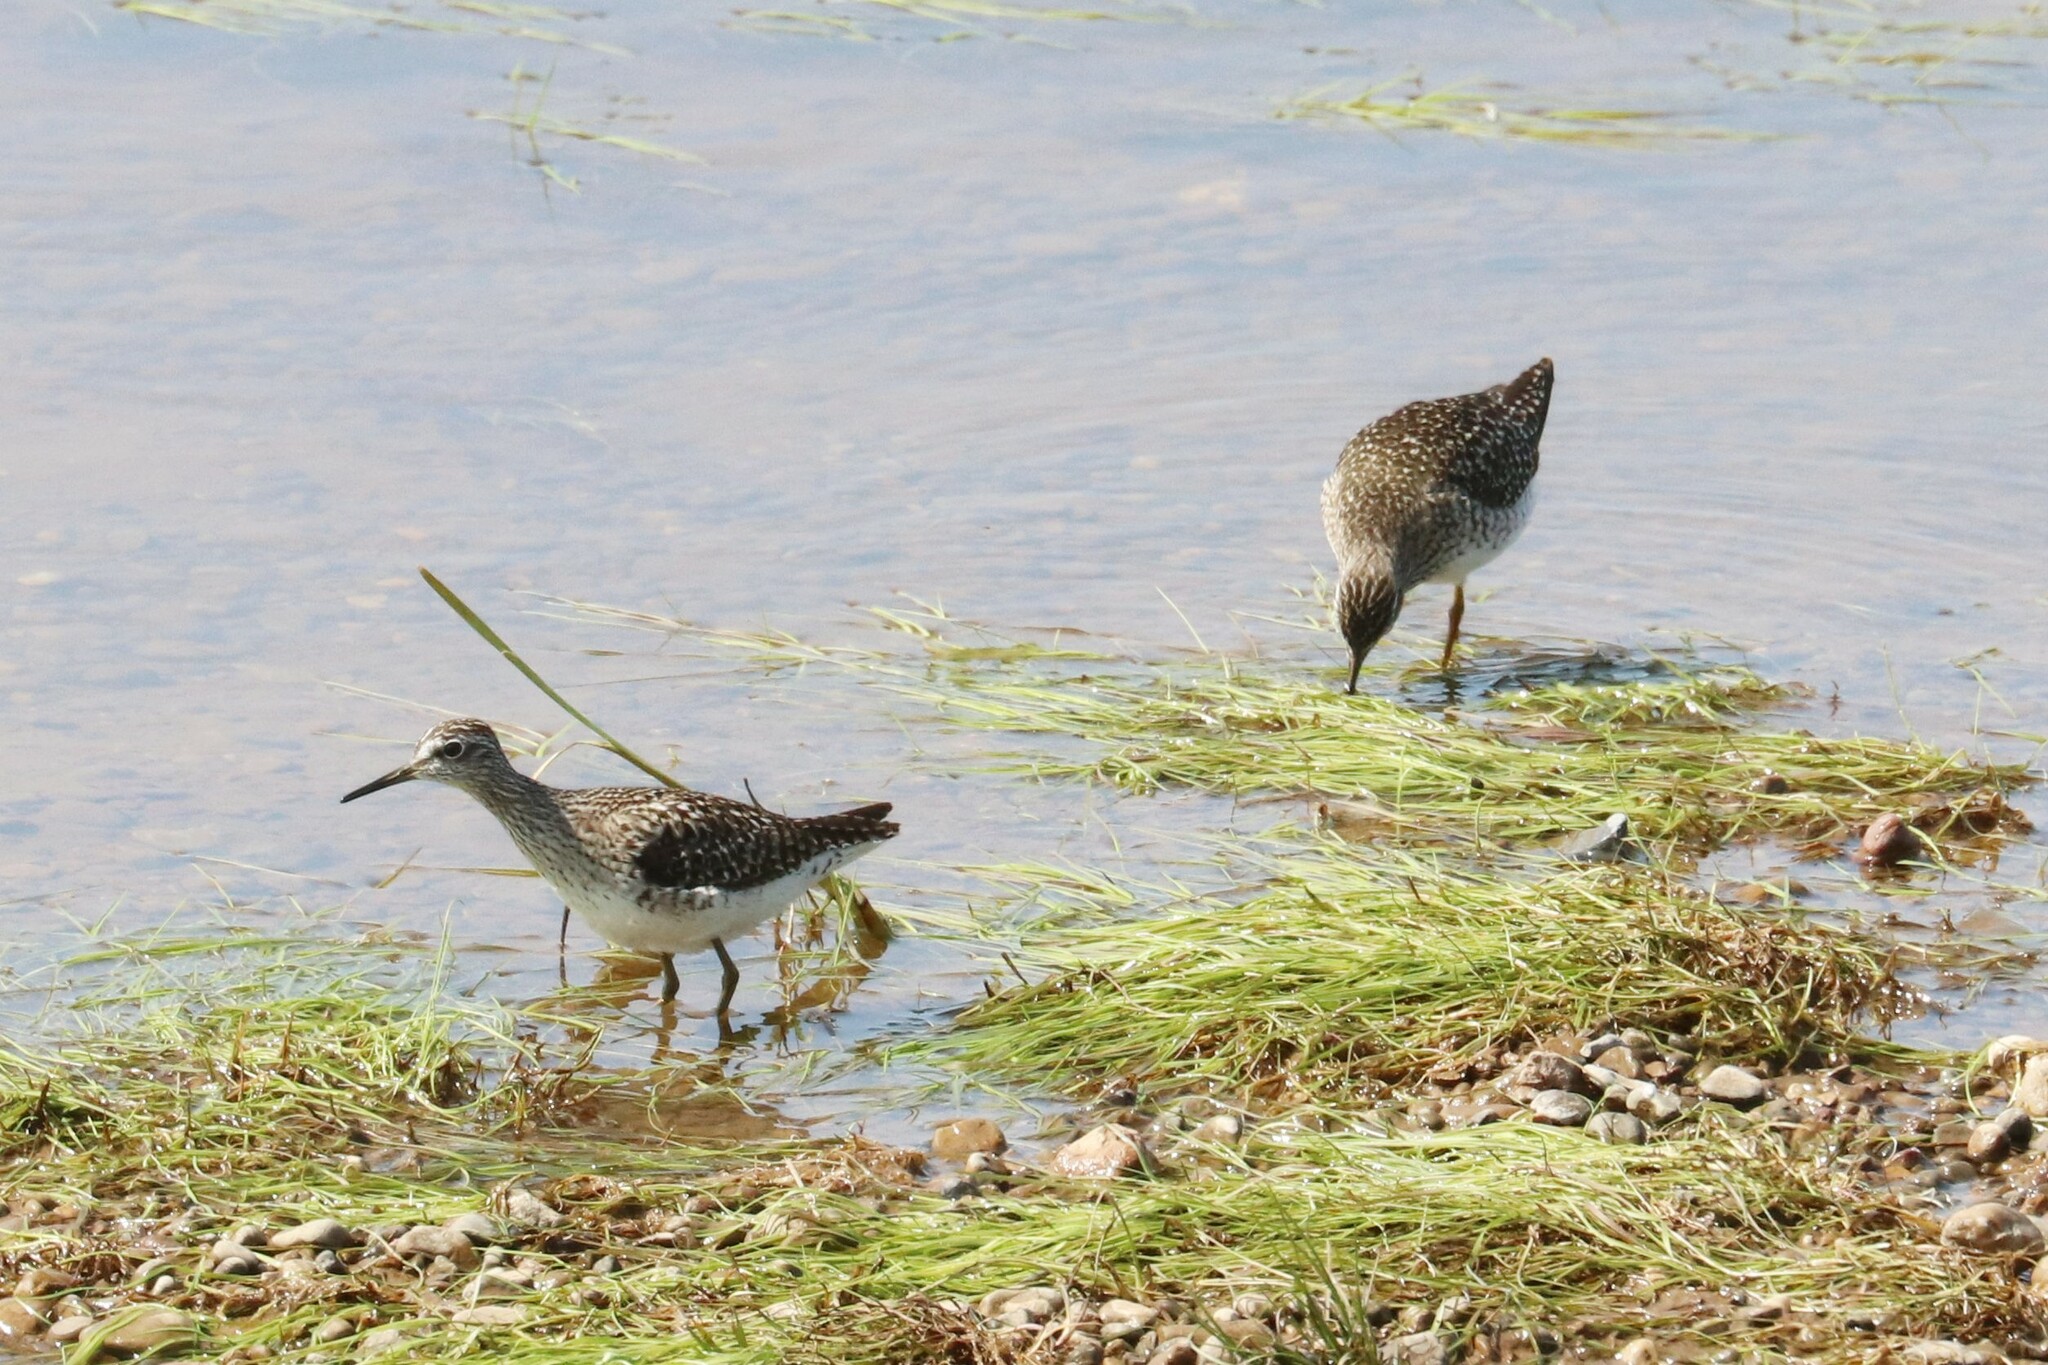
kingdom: Animalia
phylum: Chordata
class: Aves
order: Charadriiformes
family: Scolopacidae
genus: Tringa
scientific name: Tringa glareola
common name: Wood sandpiper
